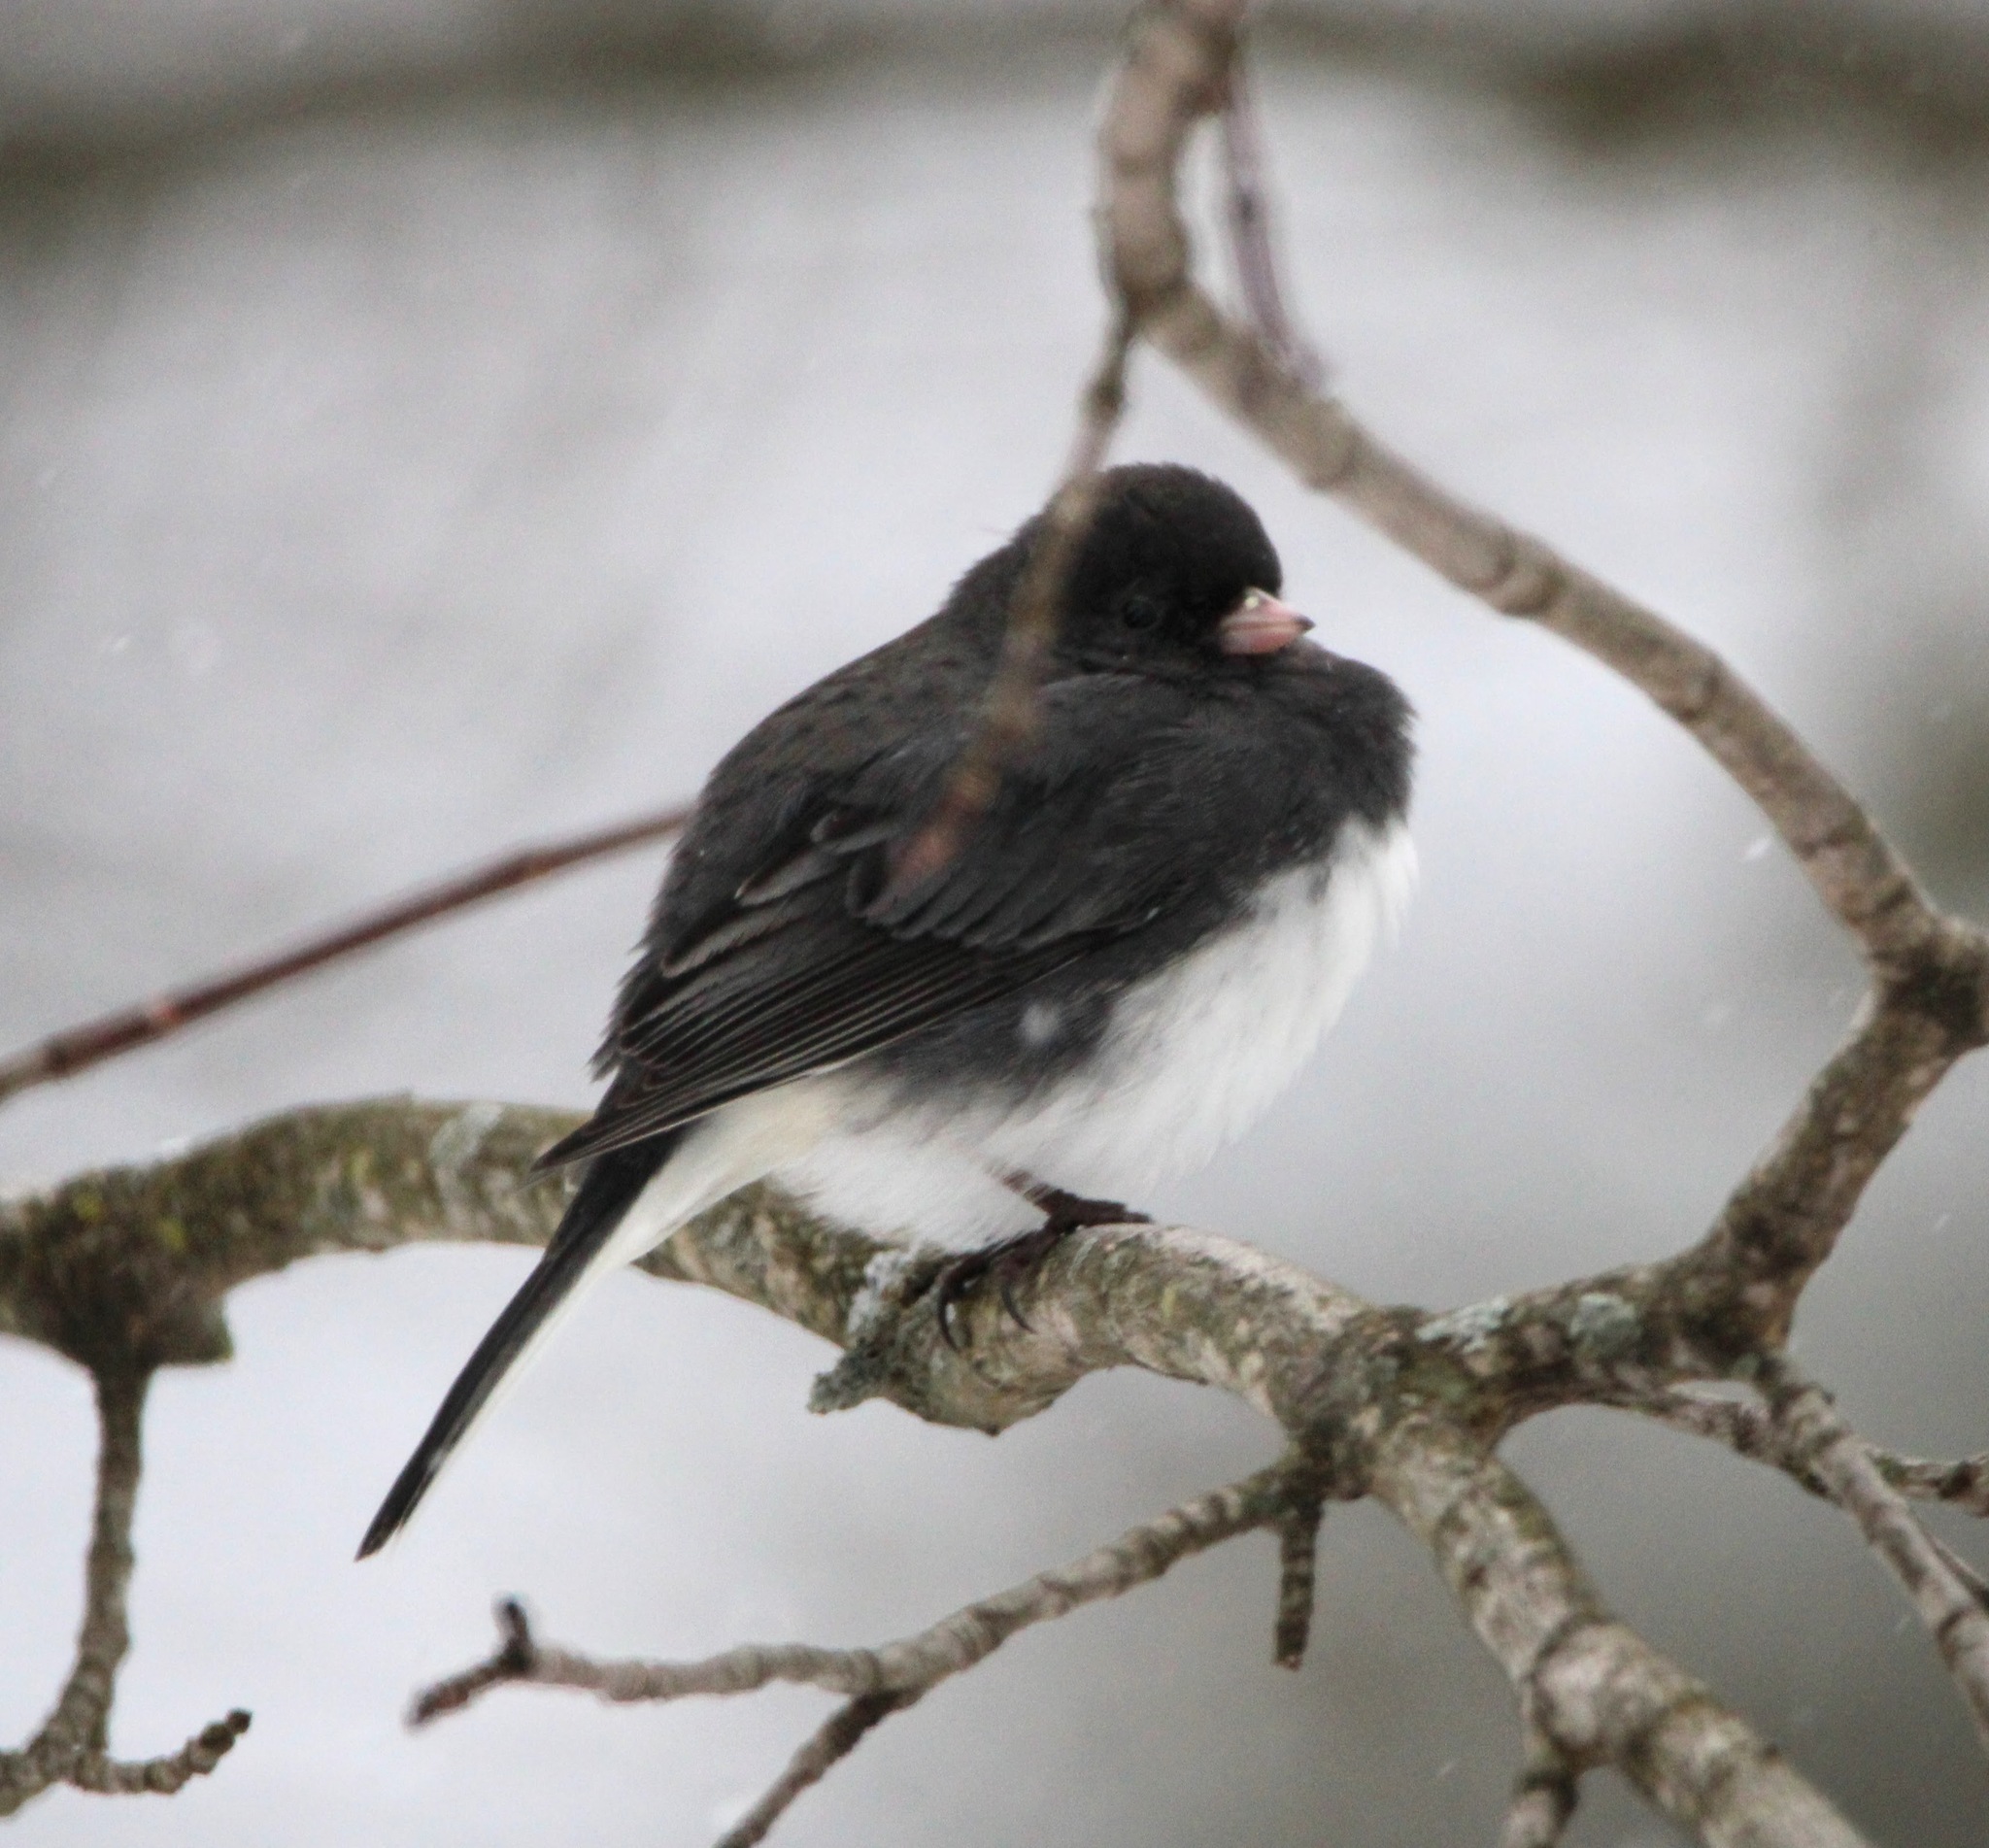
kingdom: Animalia
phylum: Chordata
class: Aves
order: Passeriformes
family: Passerellidae
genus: Junco
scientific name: Junco hyemalis
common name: Dark-eyed junco
